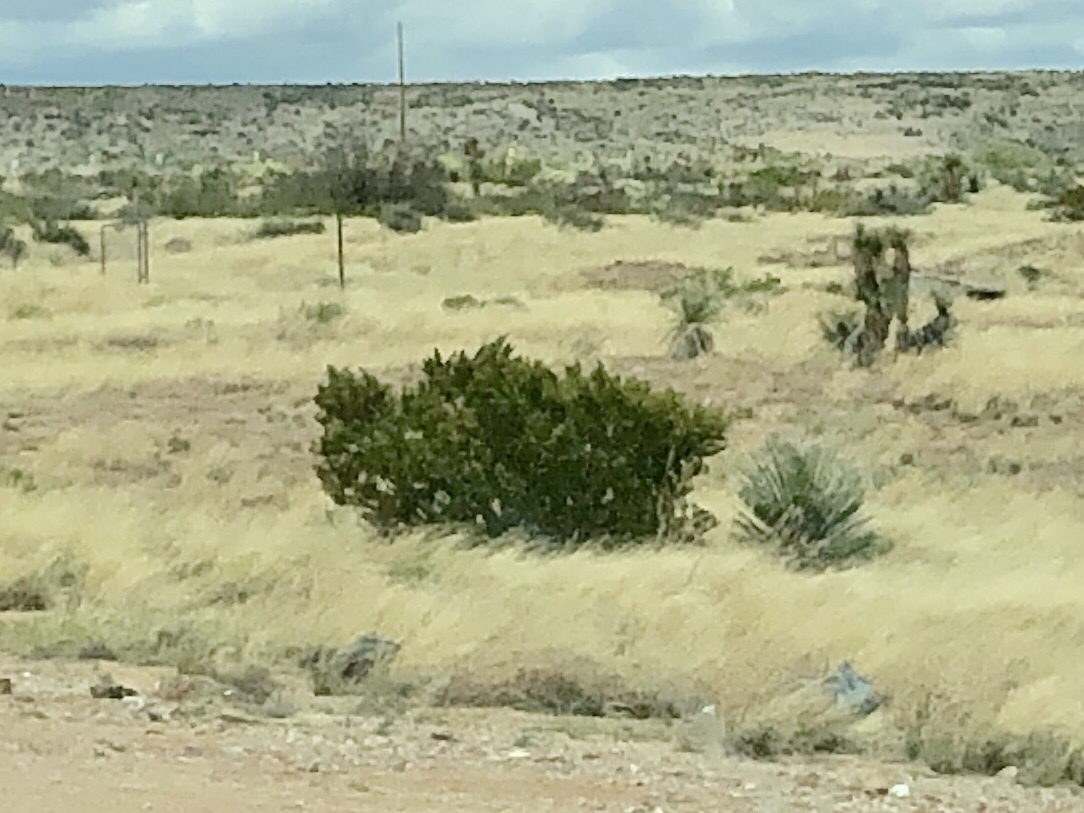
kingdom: Plantae
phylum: Tracheophyta
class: Magnoliopsida
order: Zygophyllales
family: Zygophyllaceae
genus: Larrea
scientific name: Larrea tridentata
